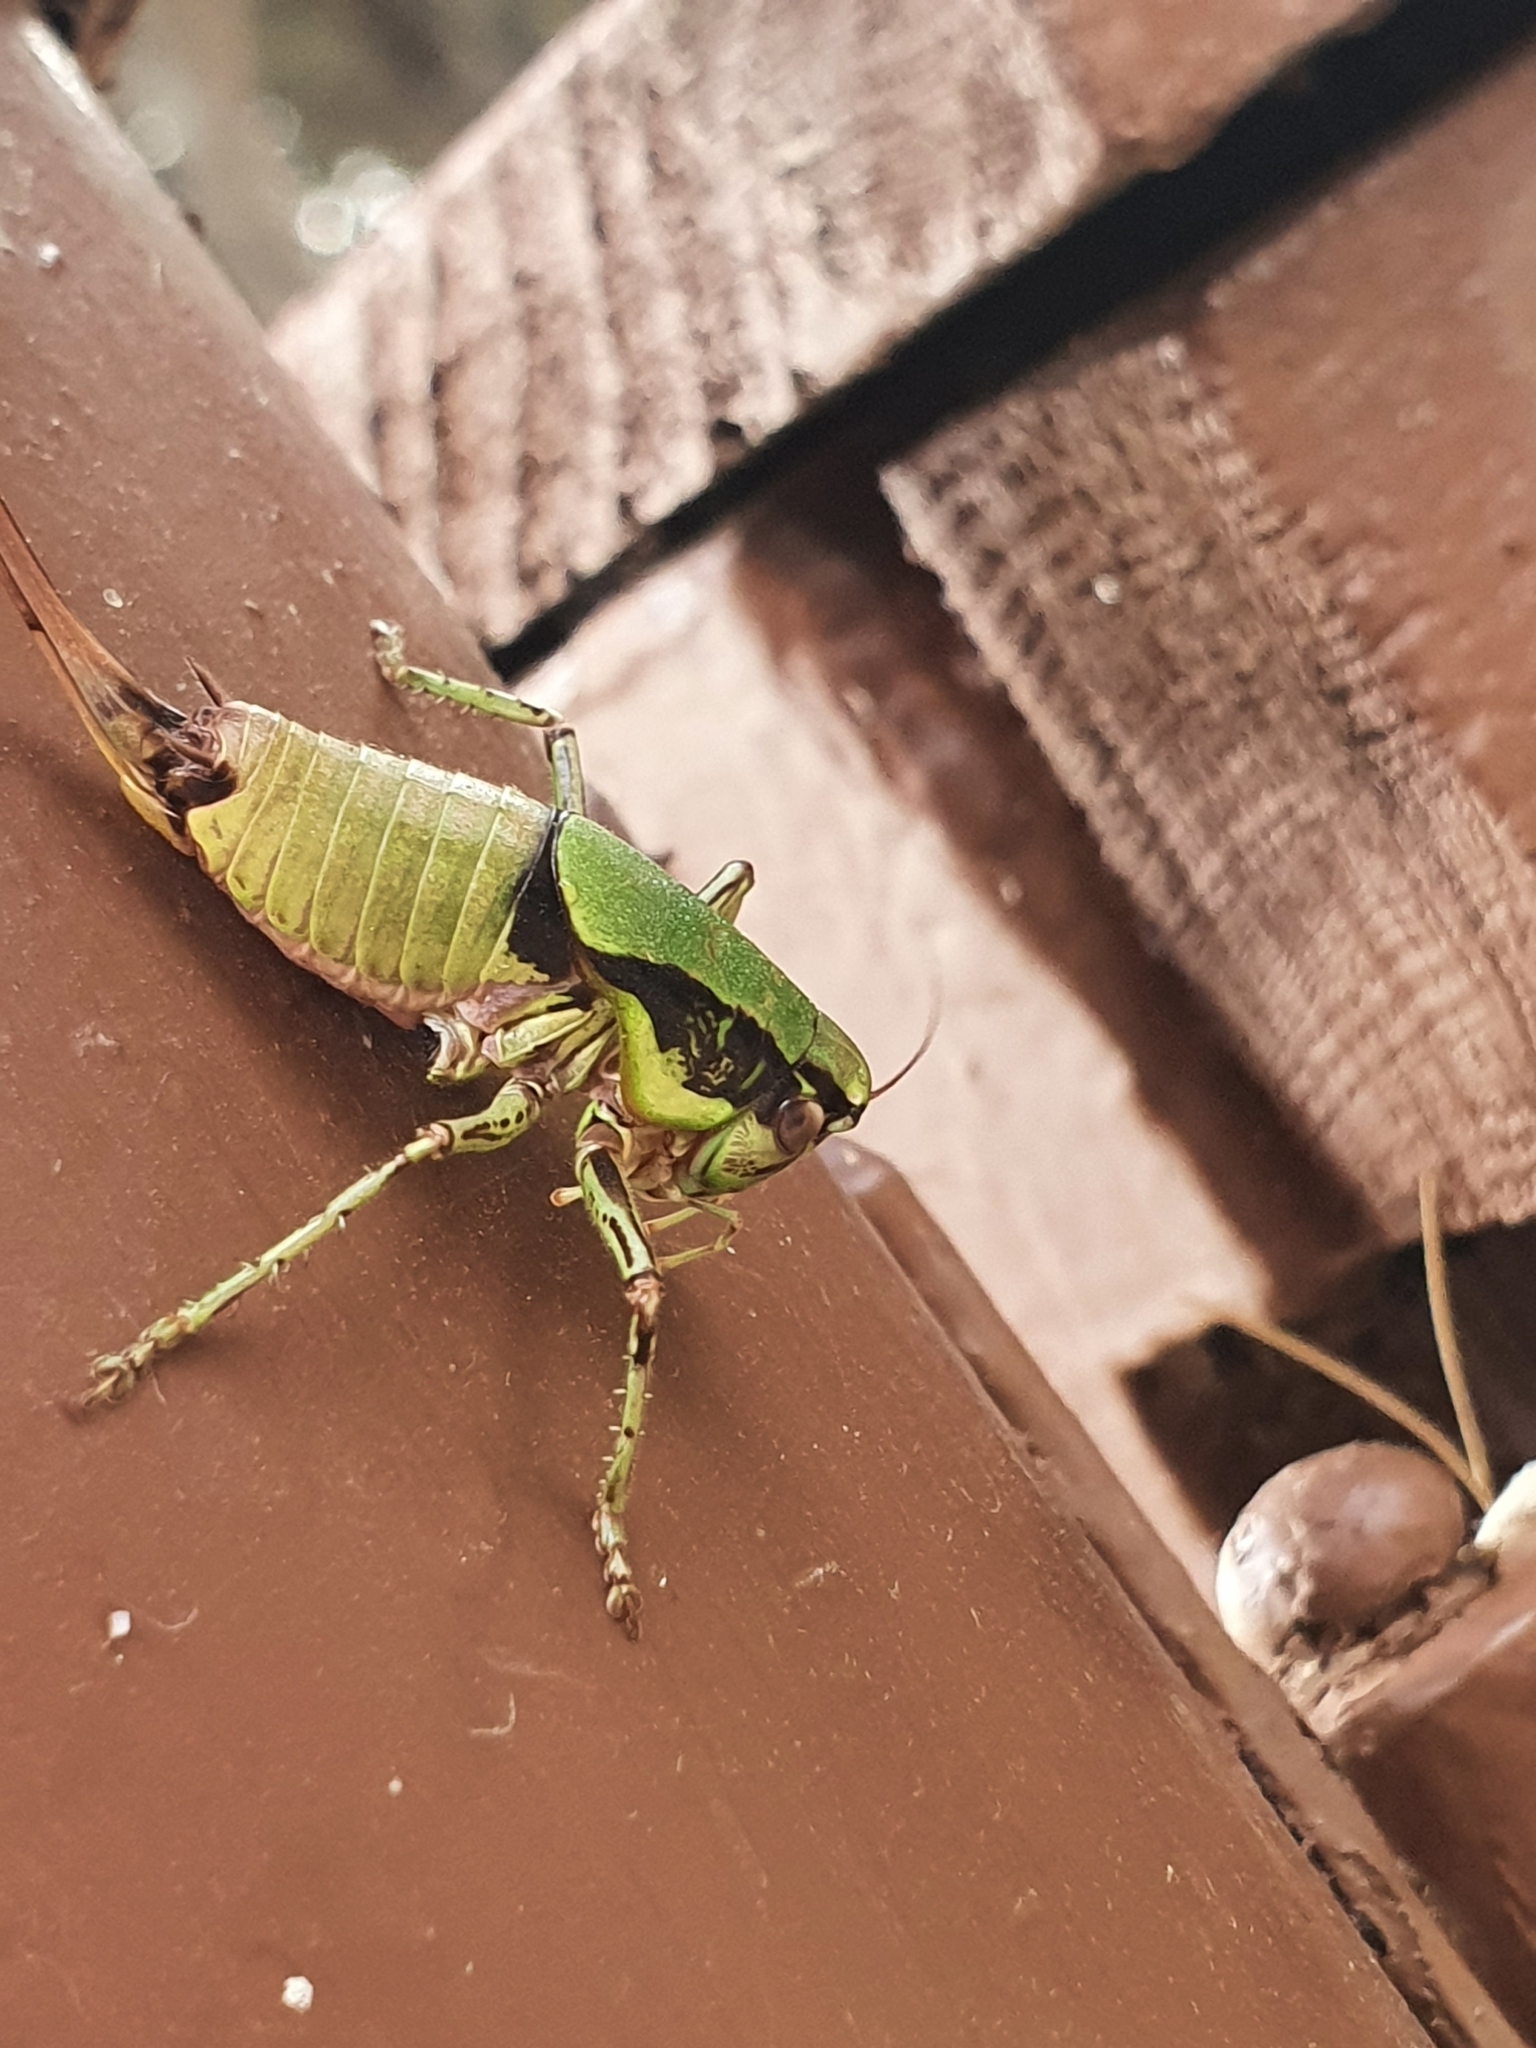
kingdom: Animalia
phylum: Arthropoda
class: Insecta
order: Orthoptera
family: Tettigoniidae
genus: Eupholidoptera
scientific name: Eupholidoptera schmidti
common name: Schmidt's marbled bush-cricket
